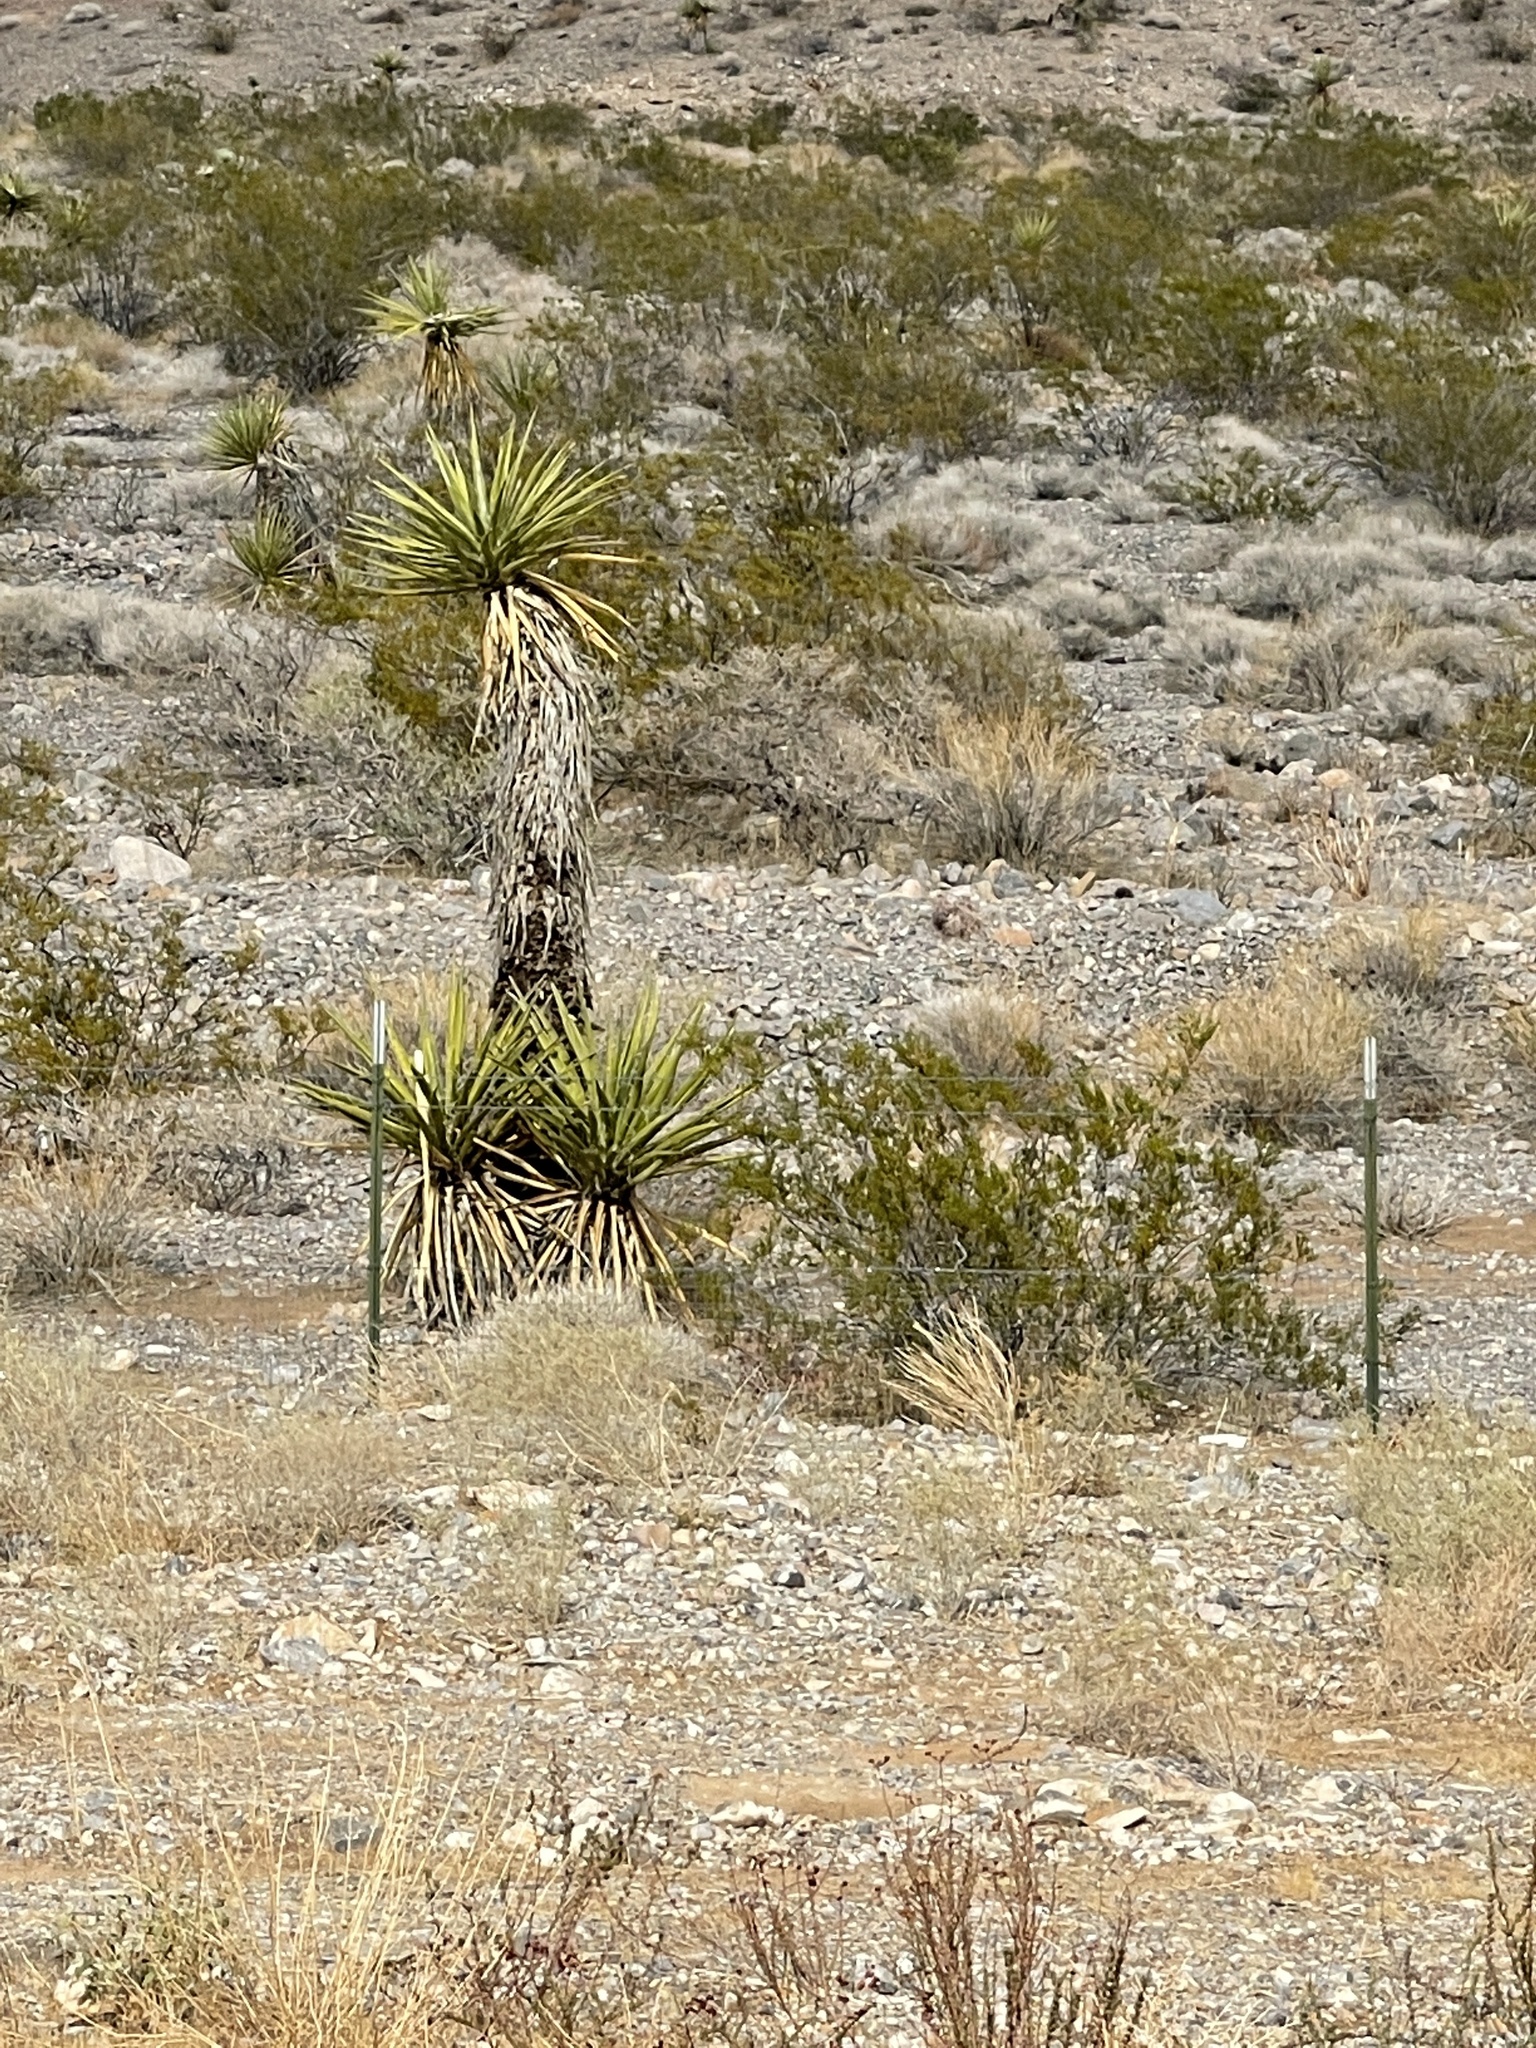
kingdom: Plantae
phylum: Tracheophyta
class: Liliopsida
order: Asparagales
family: Asparagaceae
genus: Yucca
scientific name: Yucca schidigera
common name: Mojave yucca
